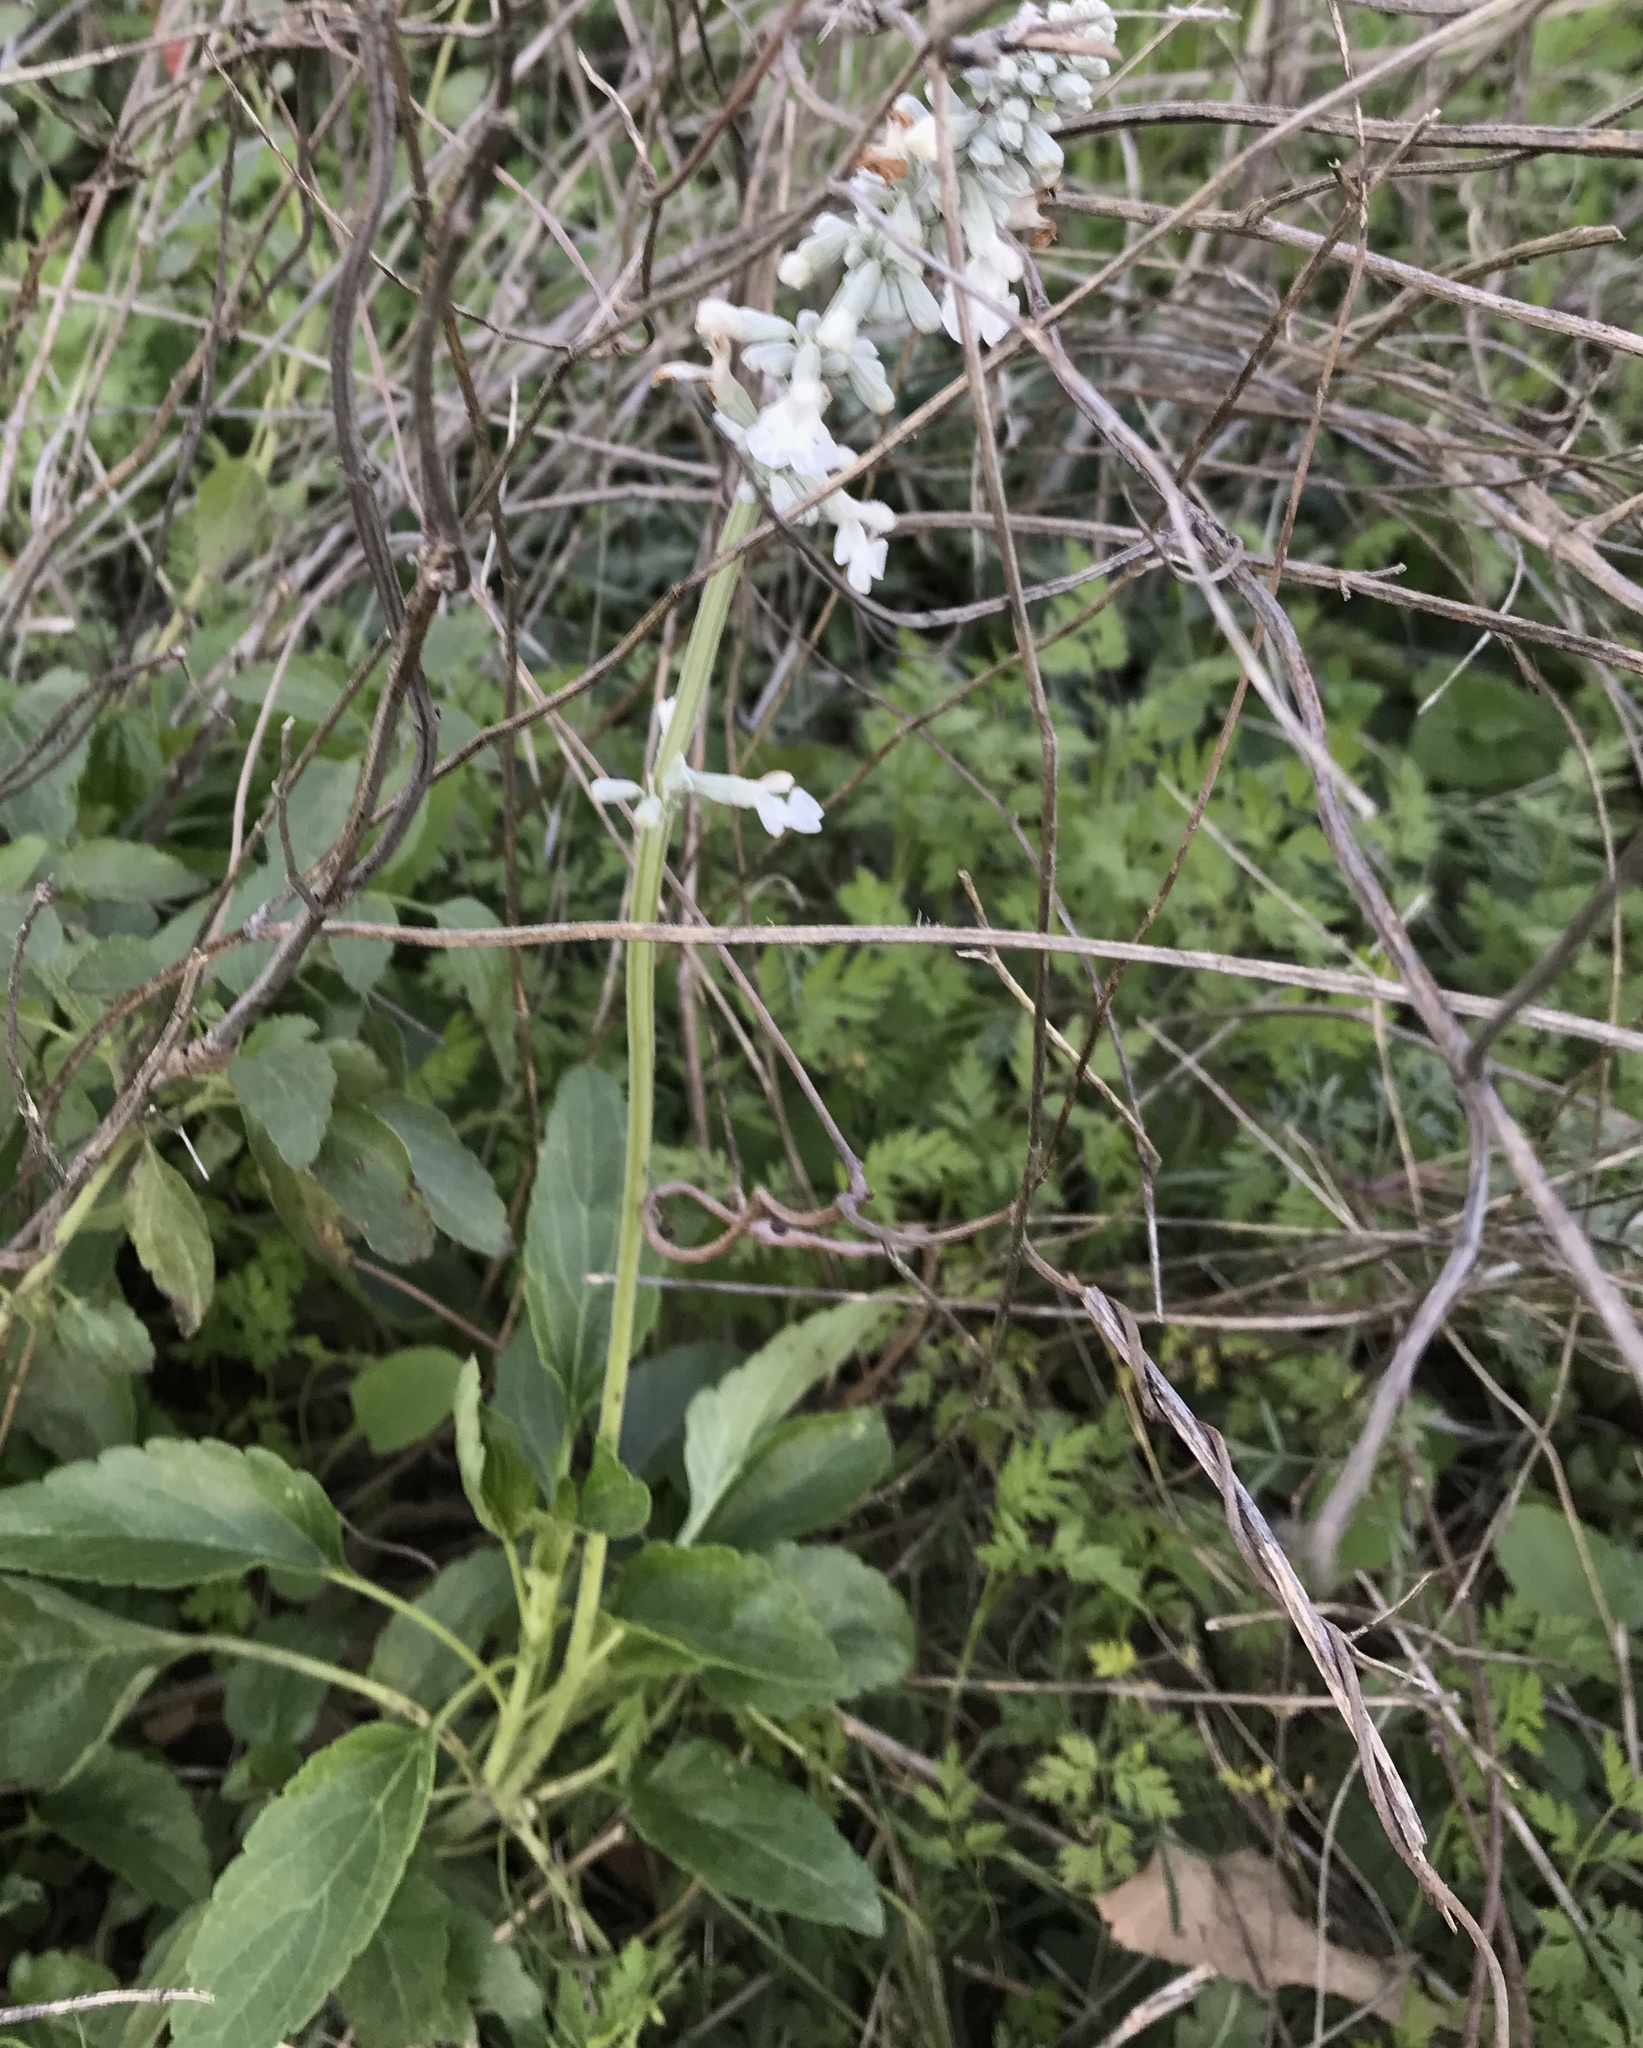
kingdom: Plantae
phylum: Tracheophyta
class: Magnoliopsida
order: Lamiales
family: Lamiaceae
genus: Salvia
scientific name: Salvia farinacea
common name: Mealy sage
